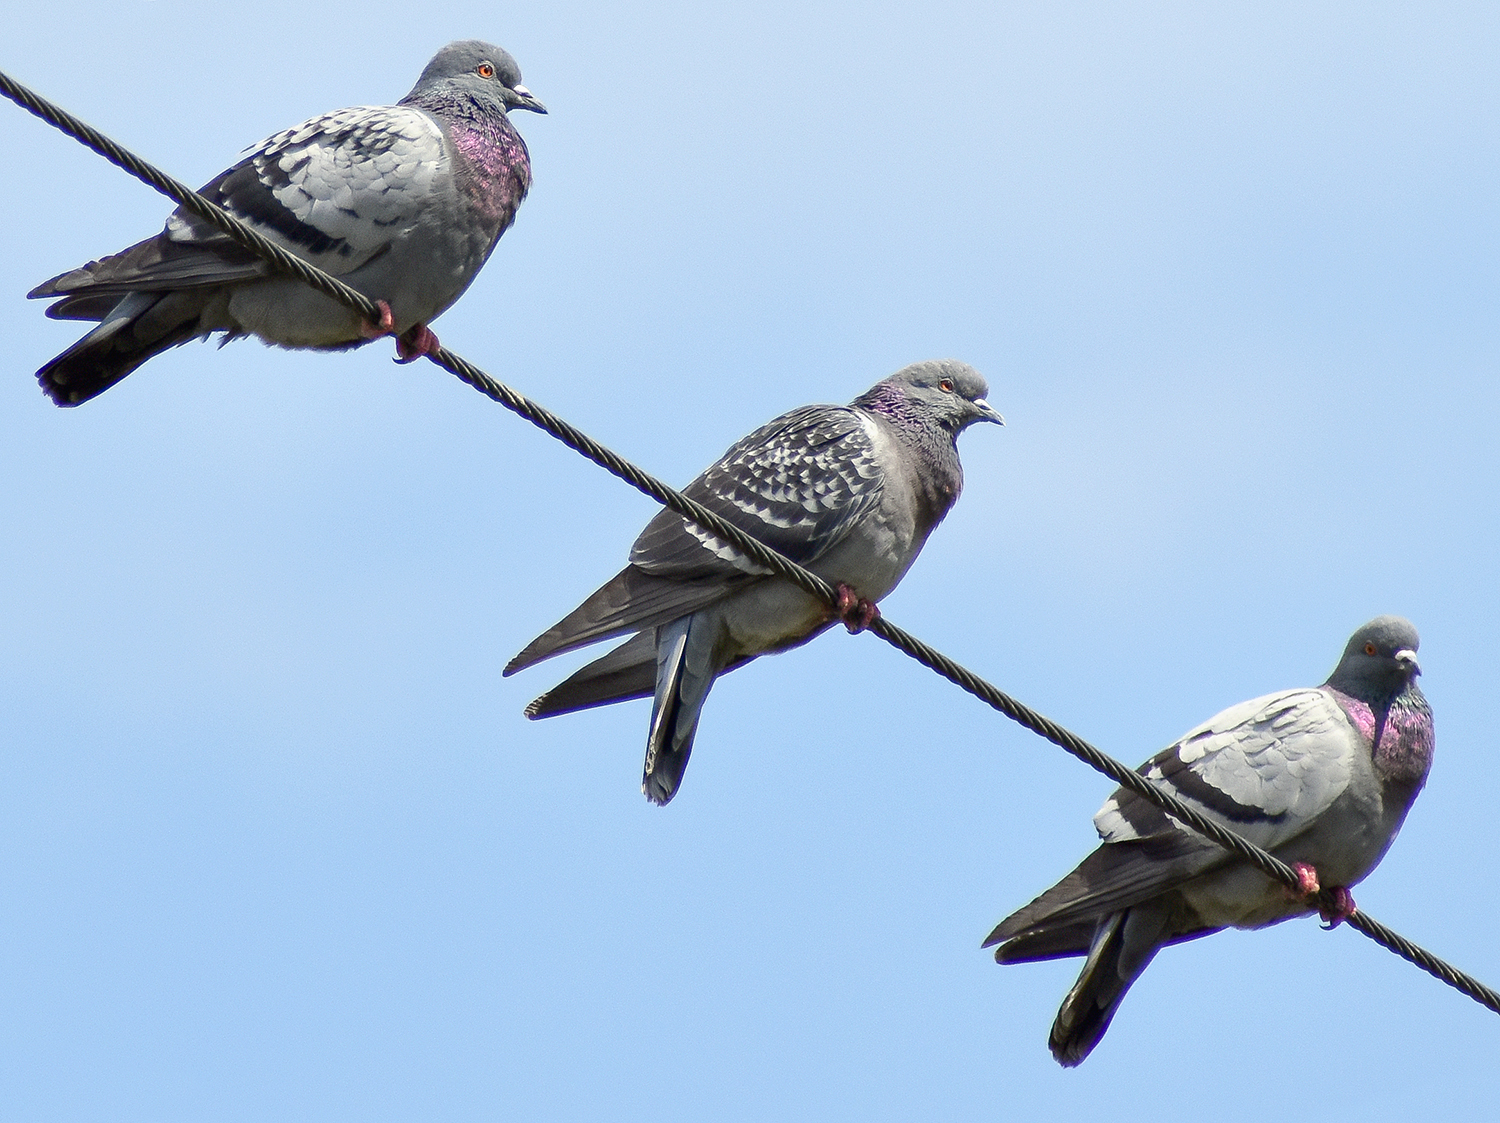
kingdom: Animalia
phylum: Chordata
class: Aves
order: Columbiformes
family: Columbidae
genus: Columba
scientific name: Columba livia
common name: Rock pigeon
